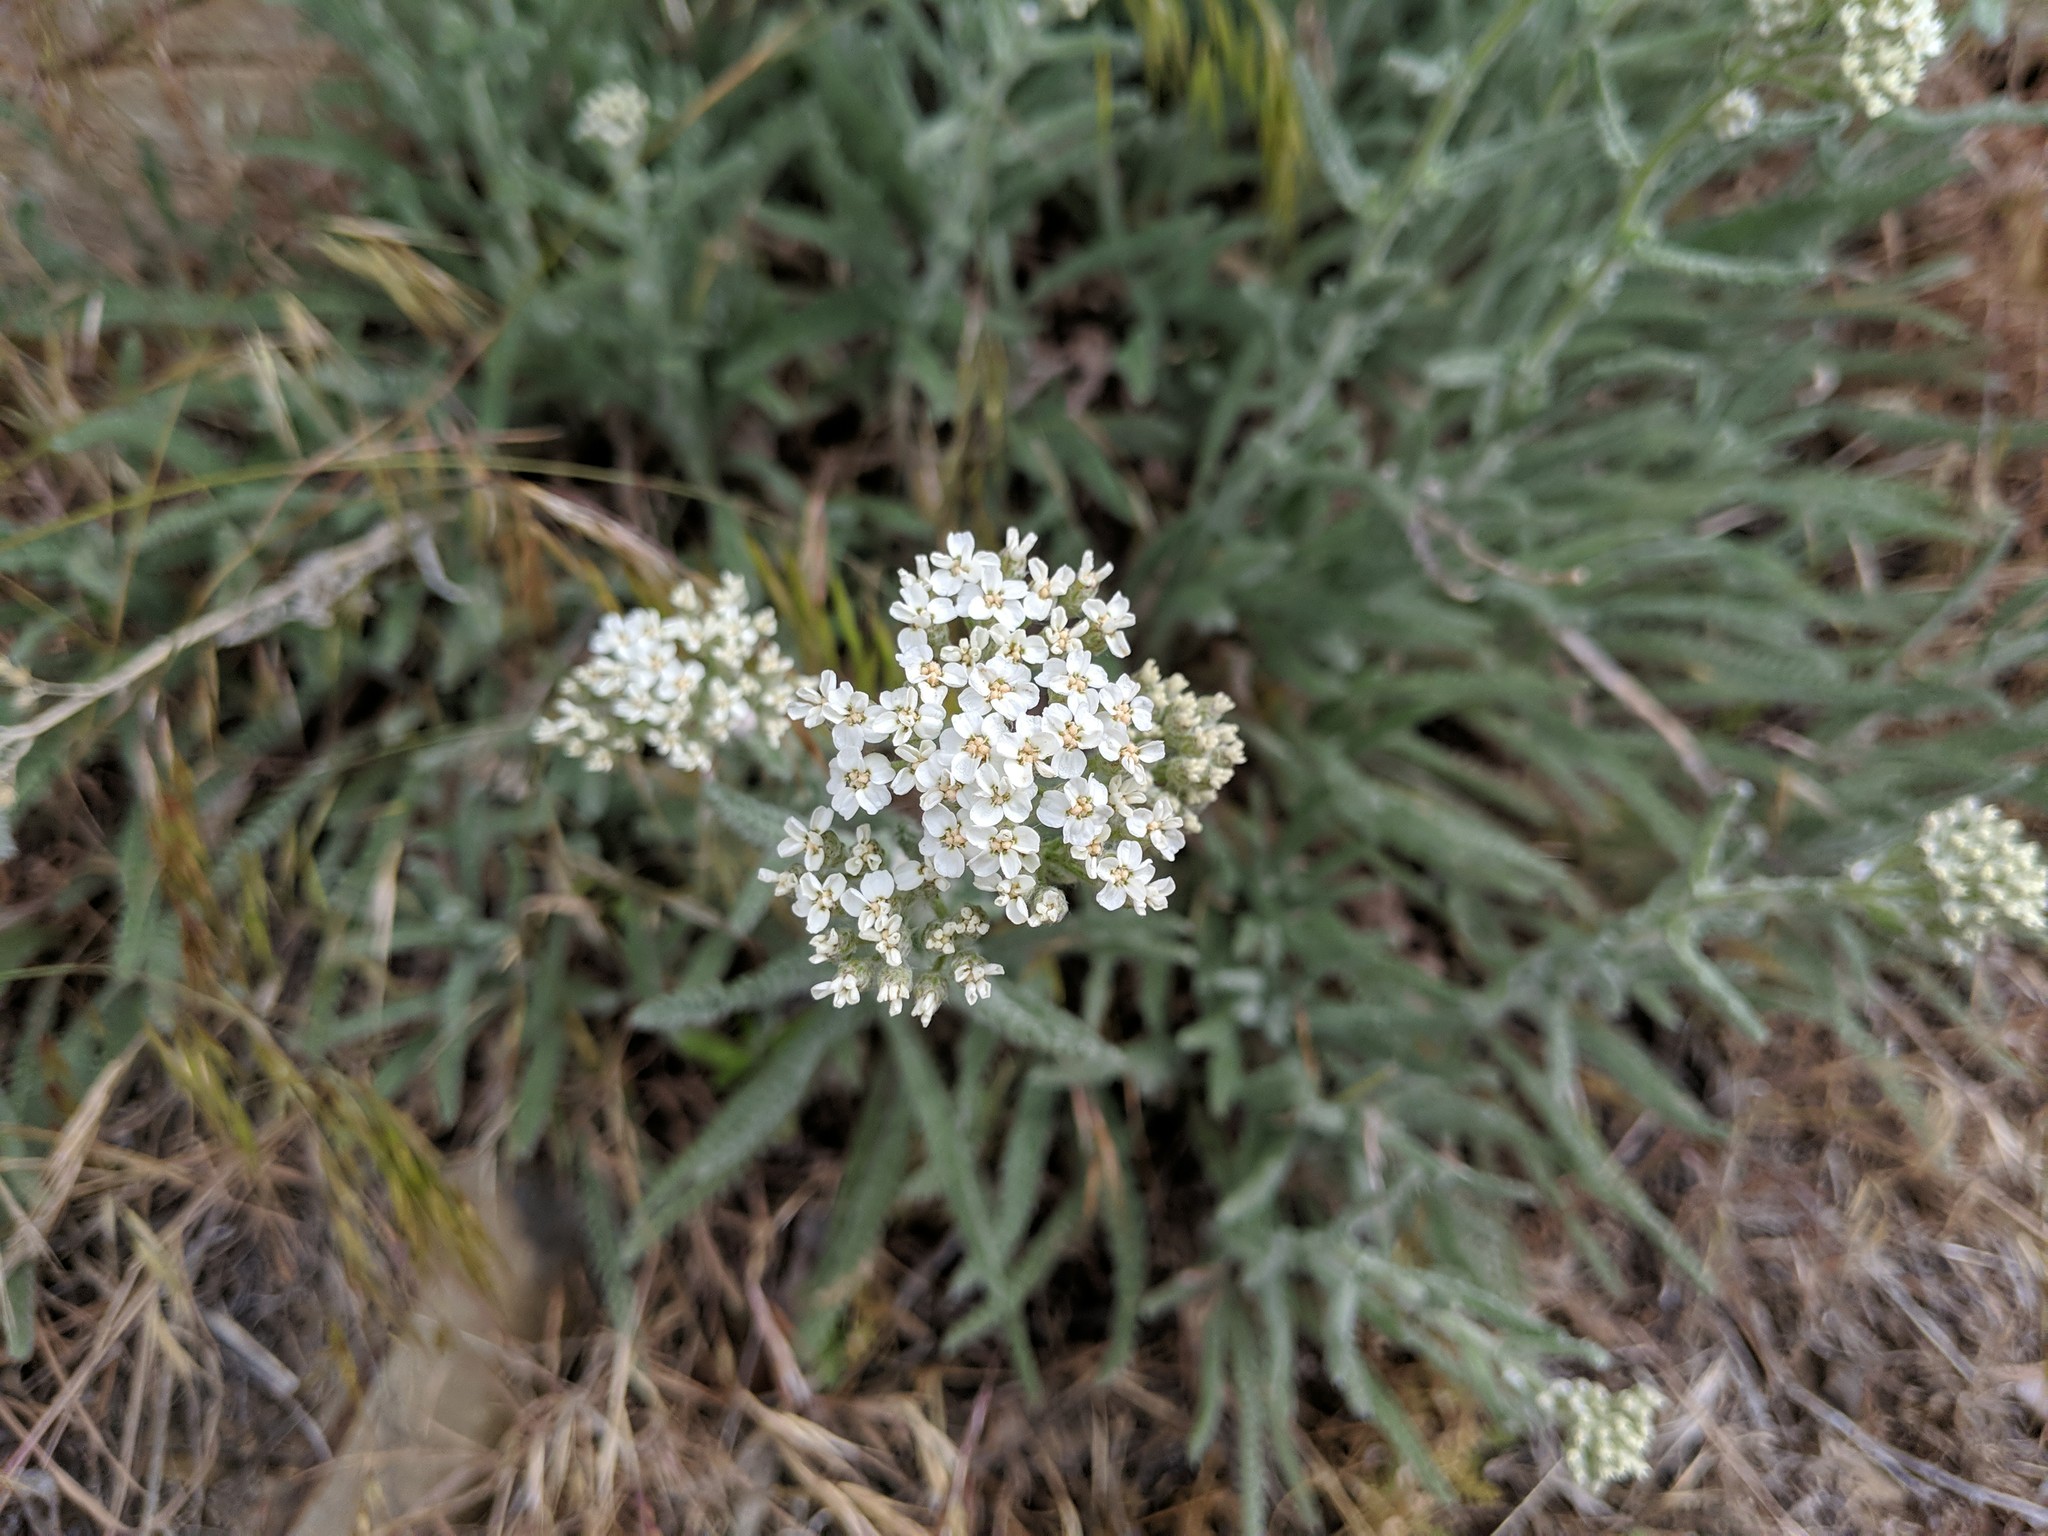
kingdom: Plantae
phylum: Tracheophyta
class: Magnoliopsida
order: Asterales
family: Asteraceae
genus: Achillea
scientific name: Achillea millefolium
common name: Yarrow
